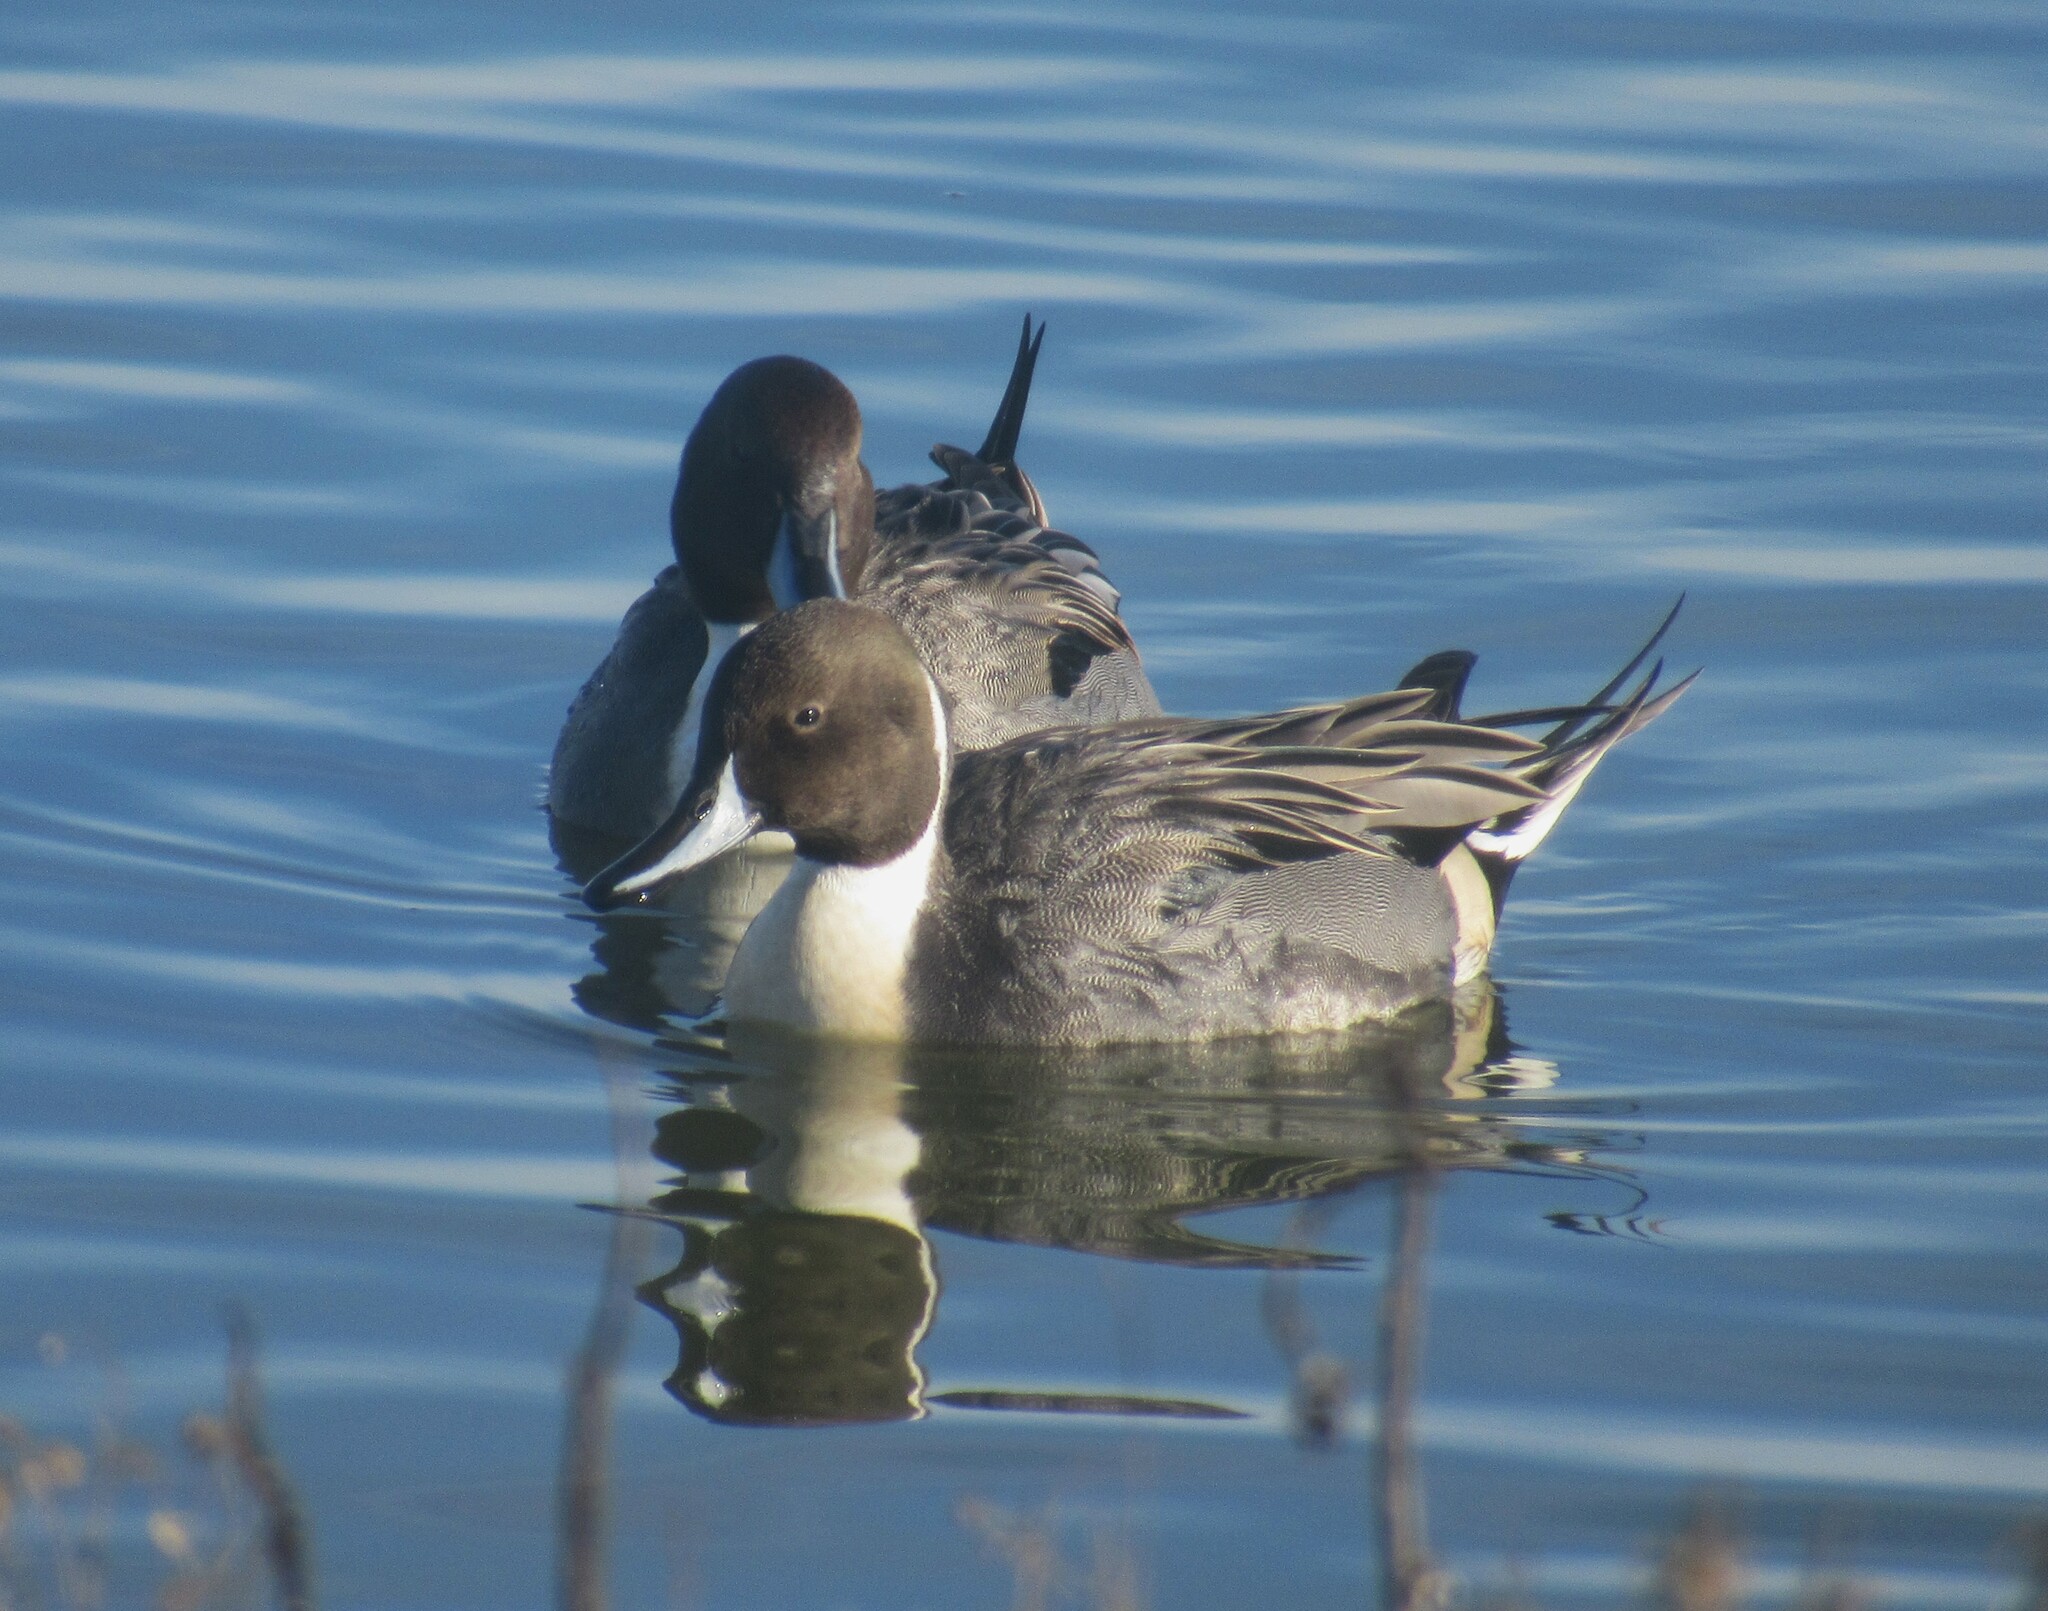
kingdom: Animalia
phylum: Chordata
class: Aves
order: Anseriformes
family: Anatidae
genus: Anas
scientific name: Anas acuta
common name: Northern pintail
